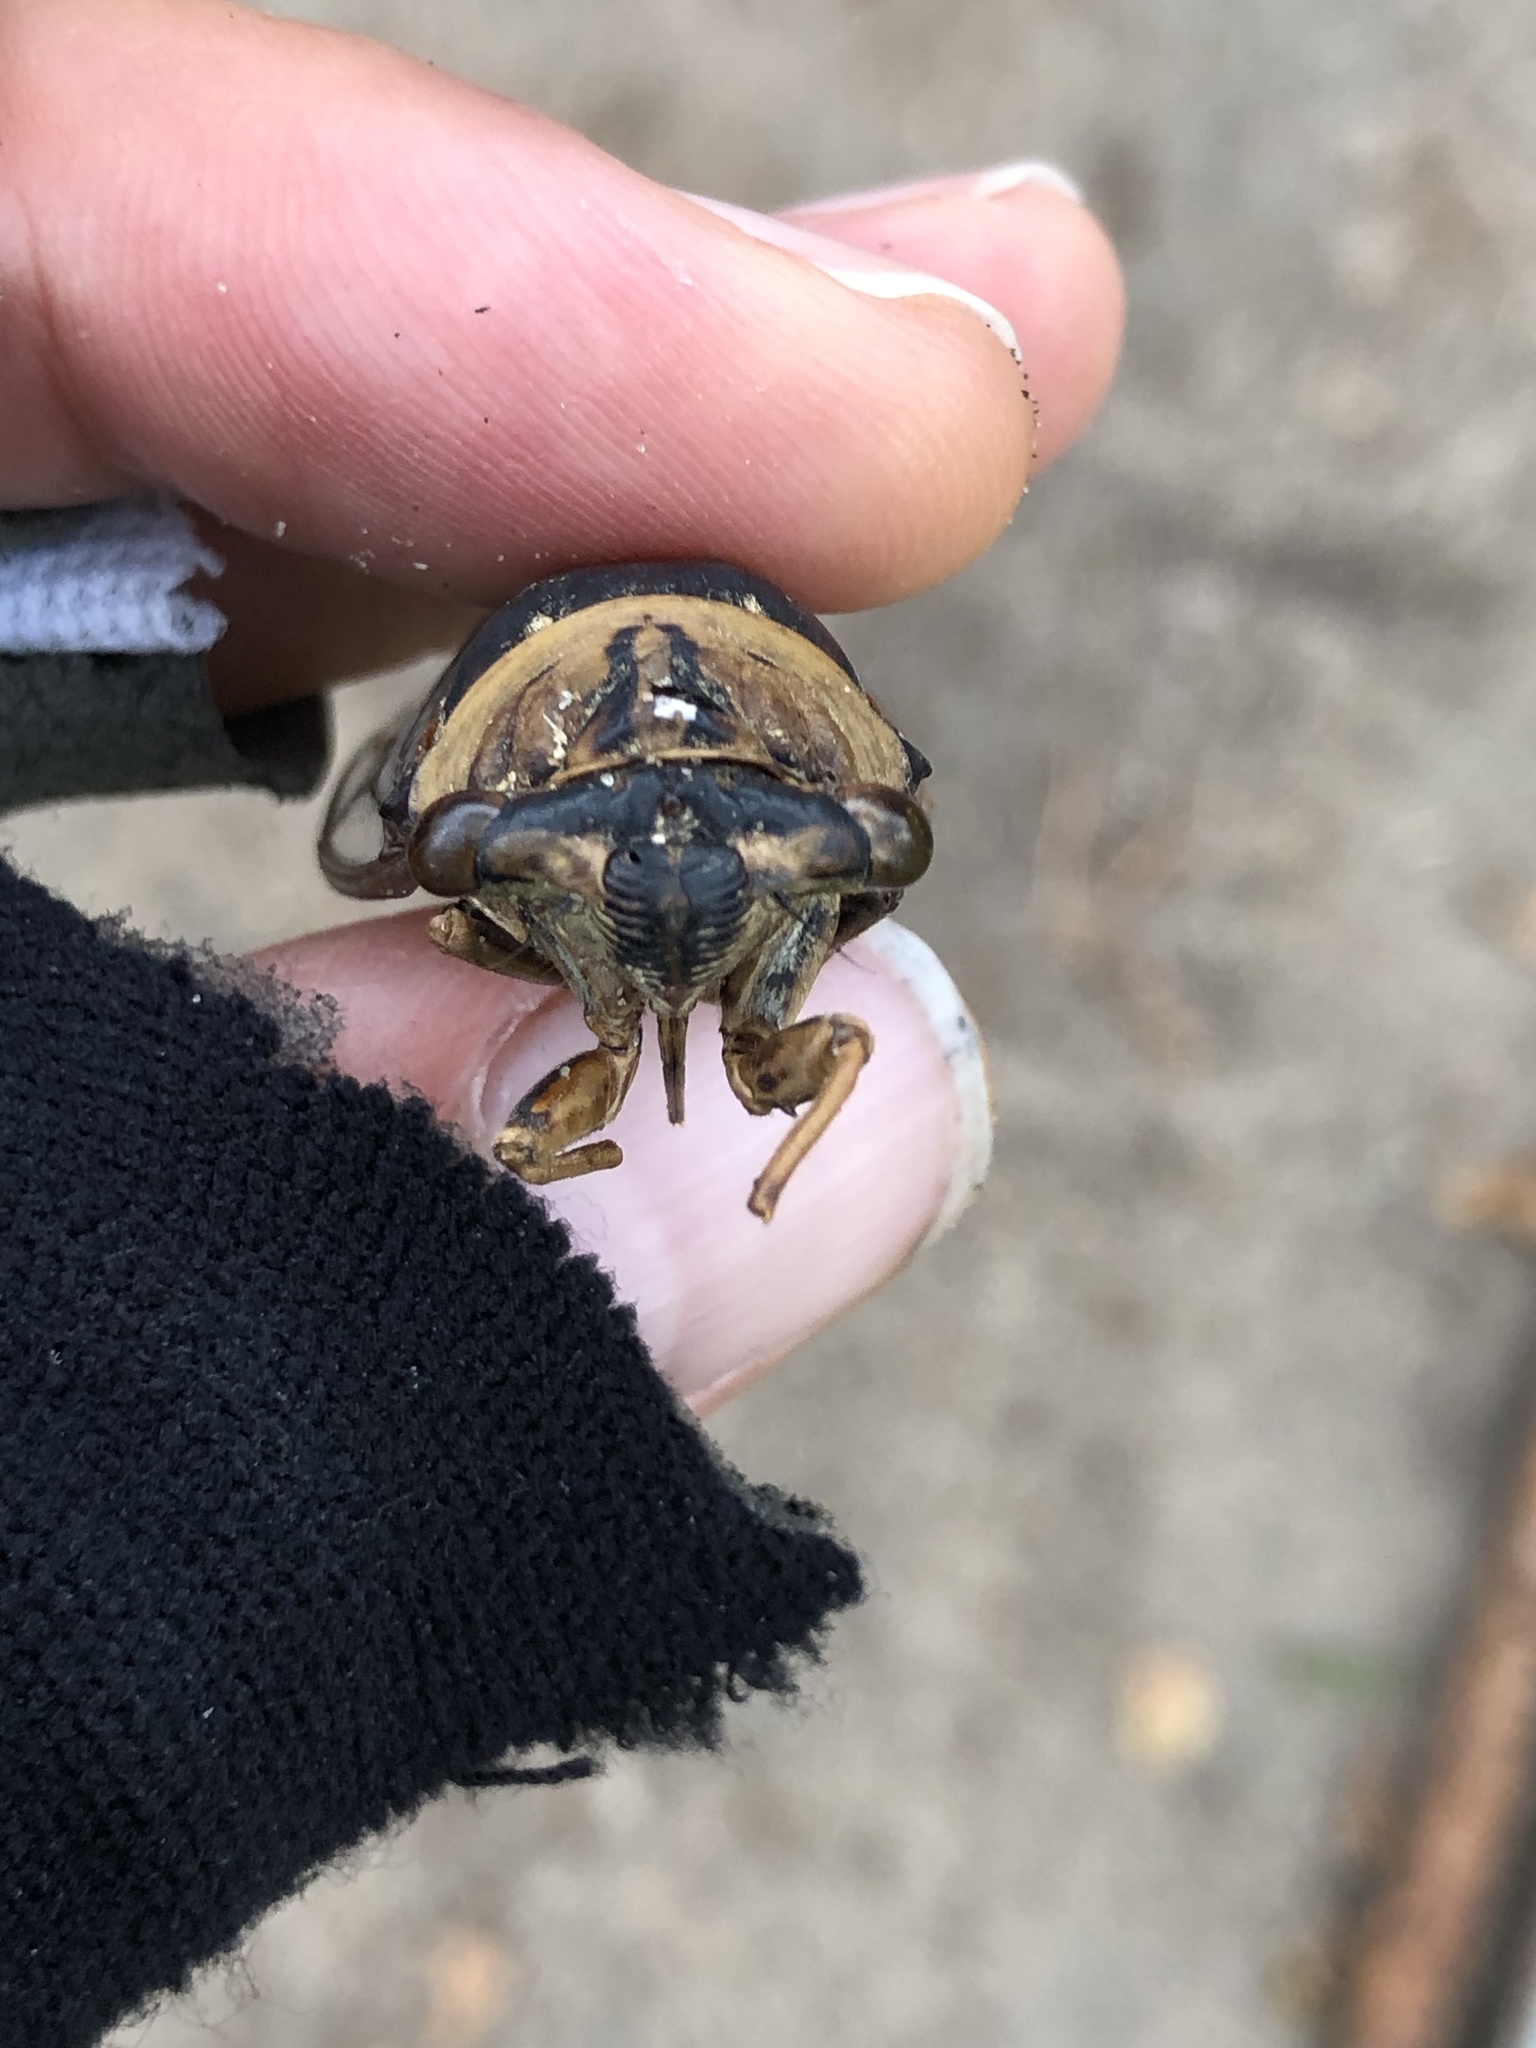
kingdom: Animalia
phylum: Arthropoda
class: Insecta
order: Hemiptera
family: Cicadidae
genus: Megatibicen
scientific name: Megatibicen resh
